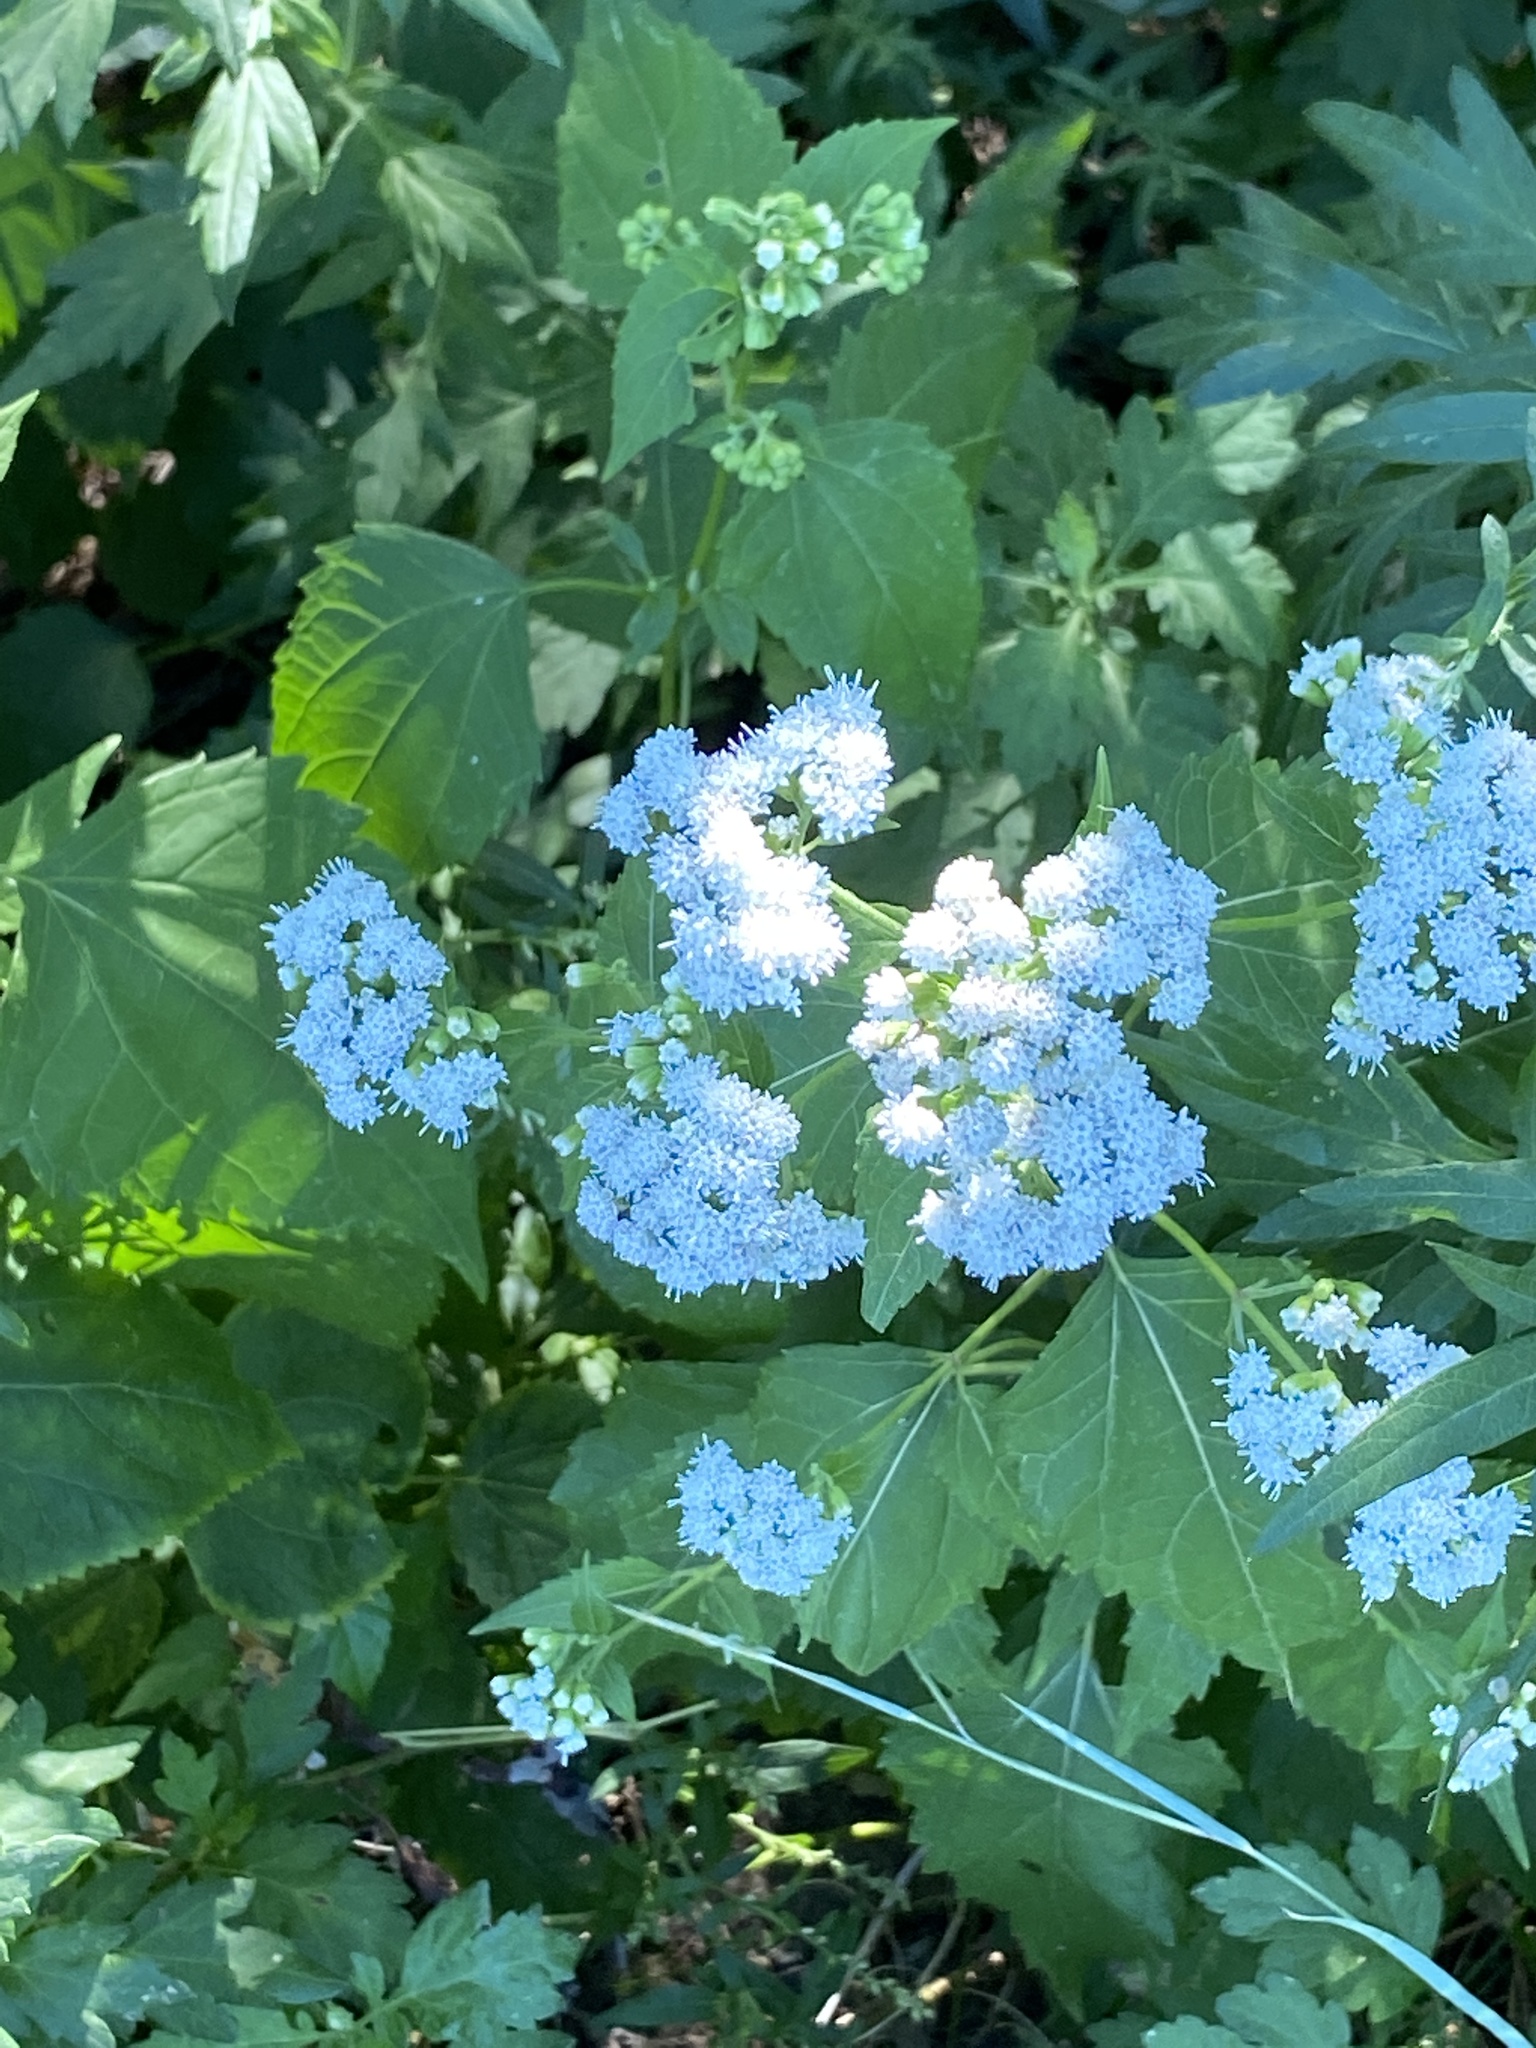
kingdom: Plantae
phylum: Tracheophyta
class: Magnoliopsida
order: Asterales
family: Asteraceae
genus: Ageratina
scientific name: Ageratina altissima
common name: White snakeroot
